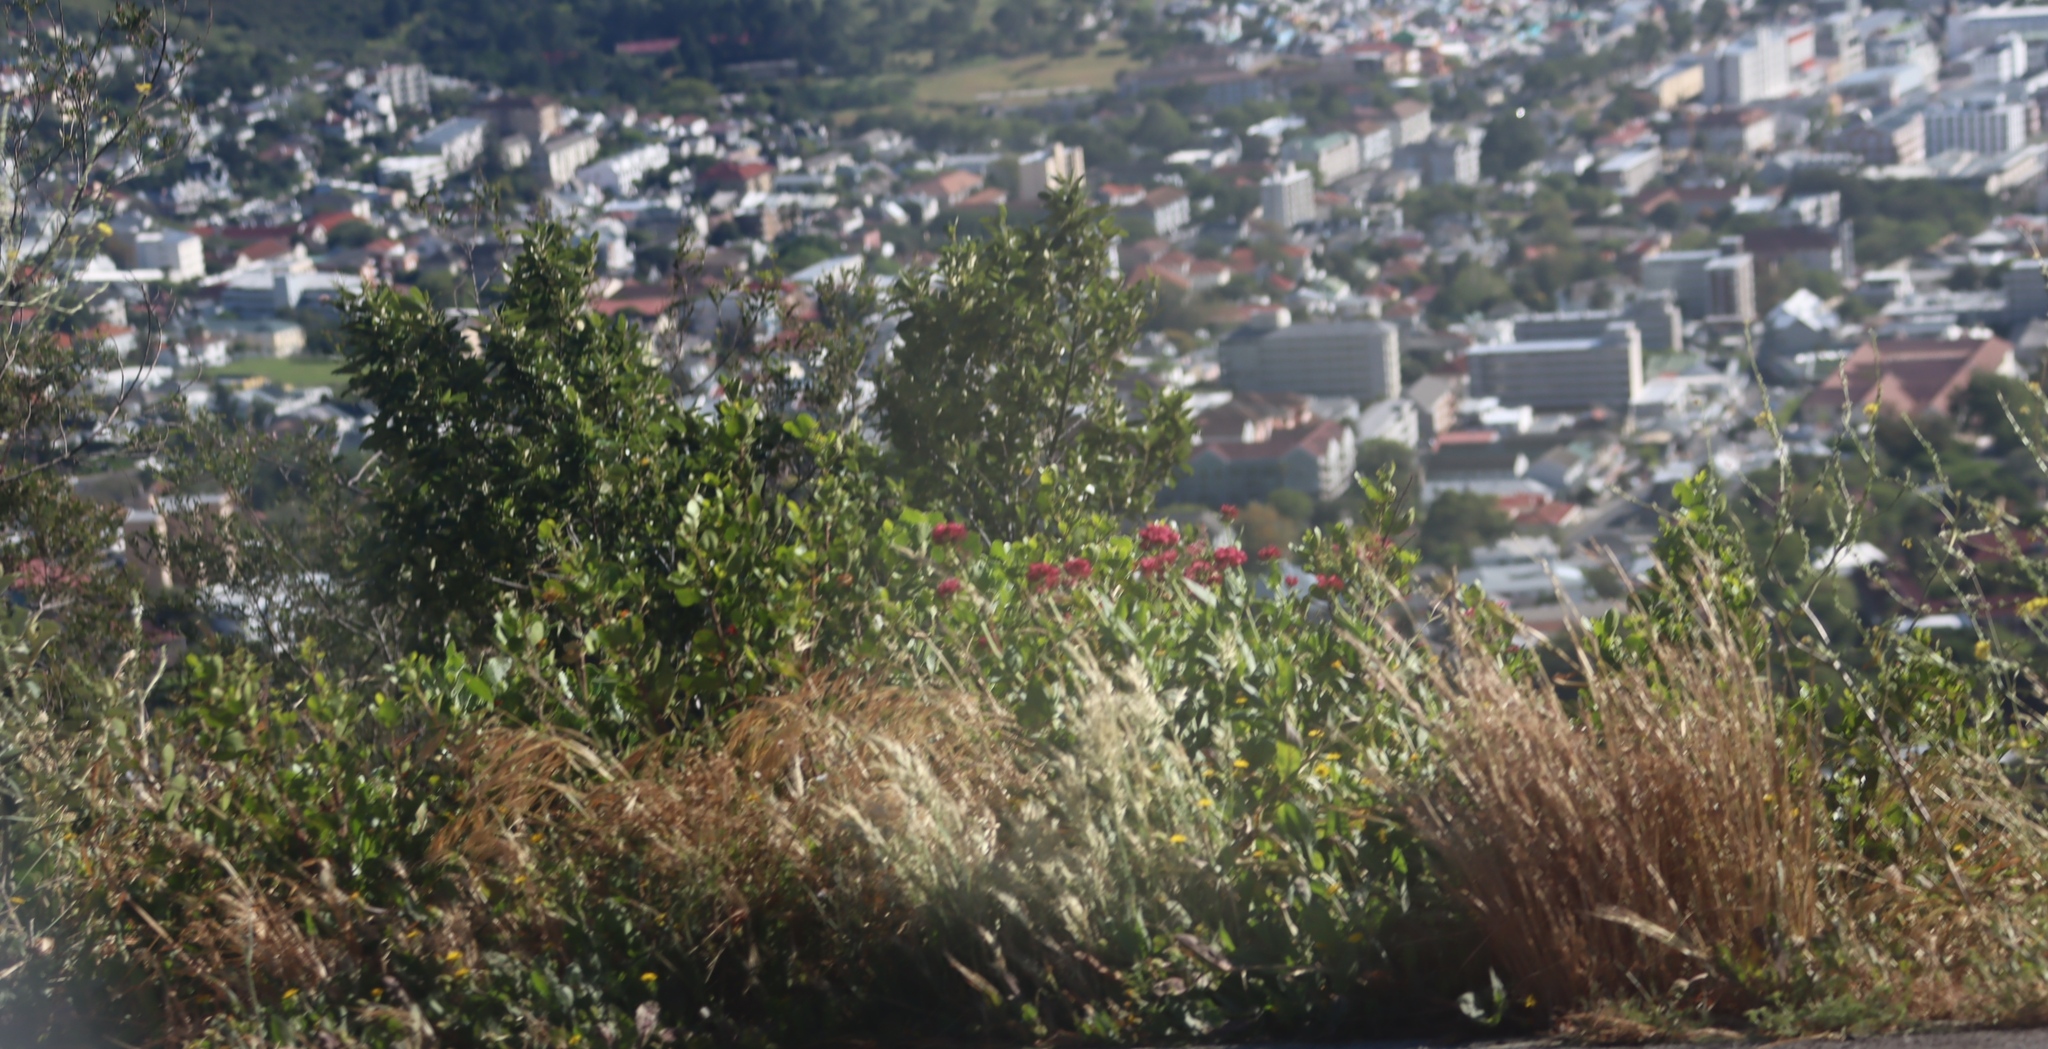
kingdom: Plantae
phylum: Tracheophyta
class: Magnoliopsida
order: Dipsacales
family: Caprifoliaceae
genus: Centranthus
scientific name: Centranthus ruber
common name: Red valerian
